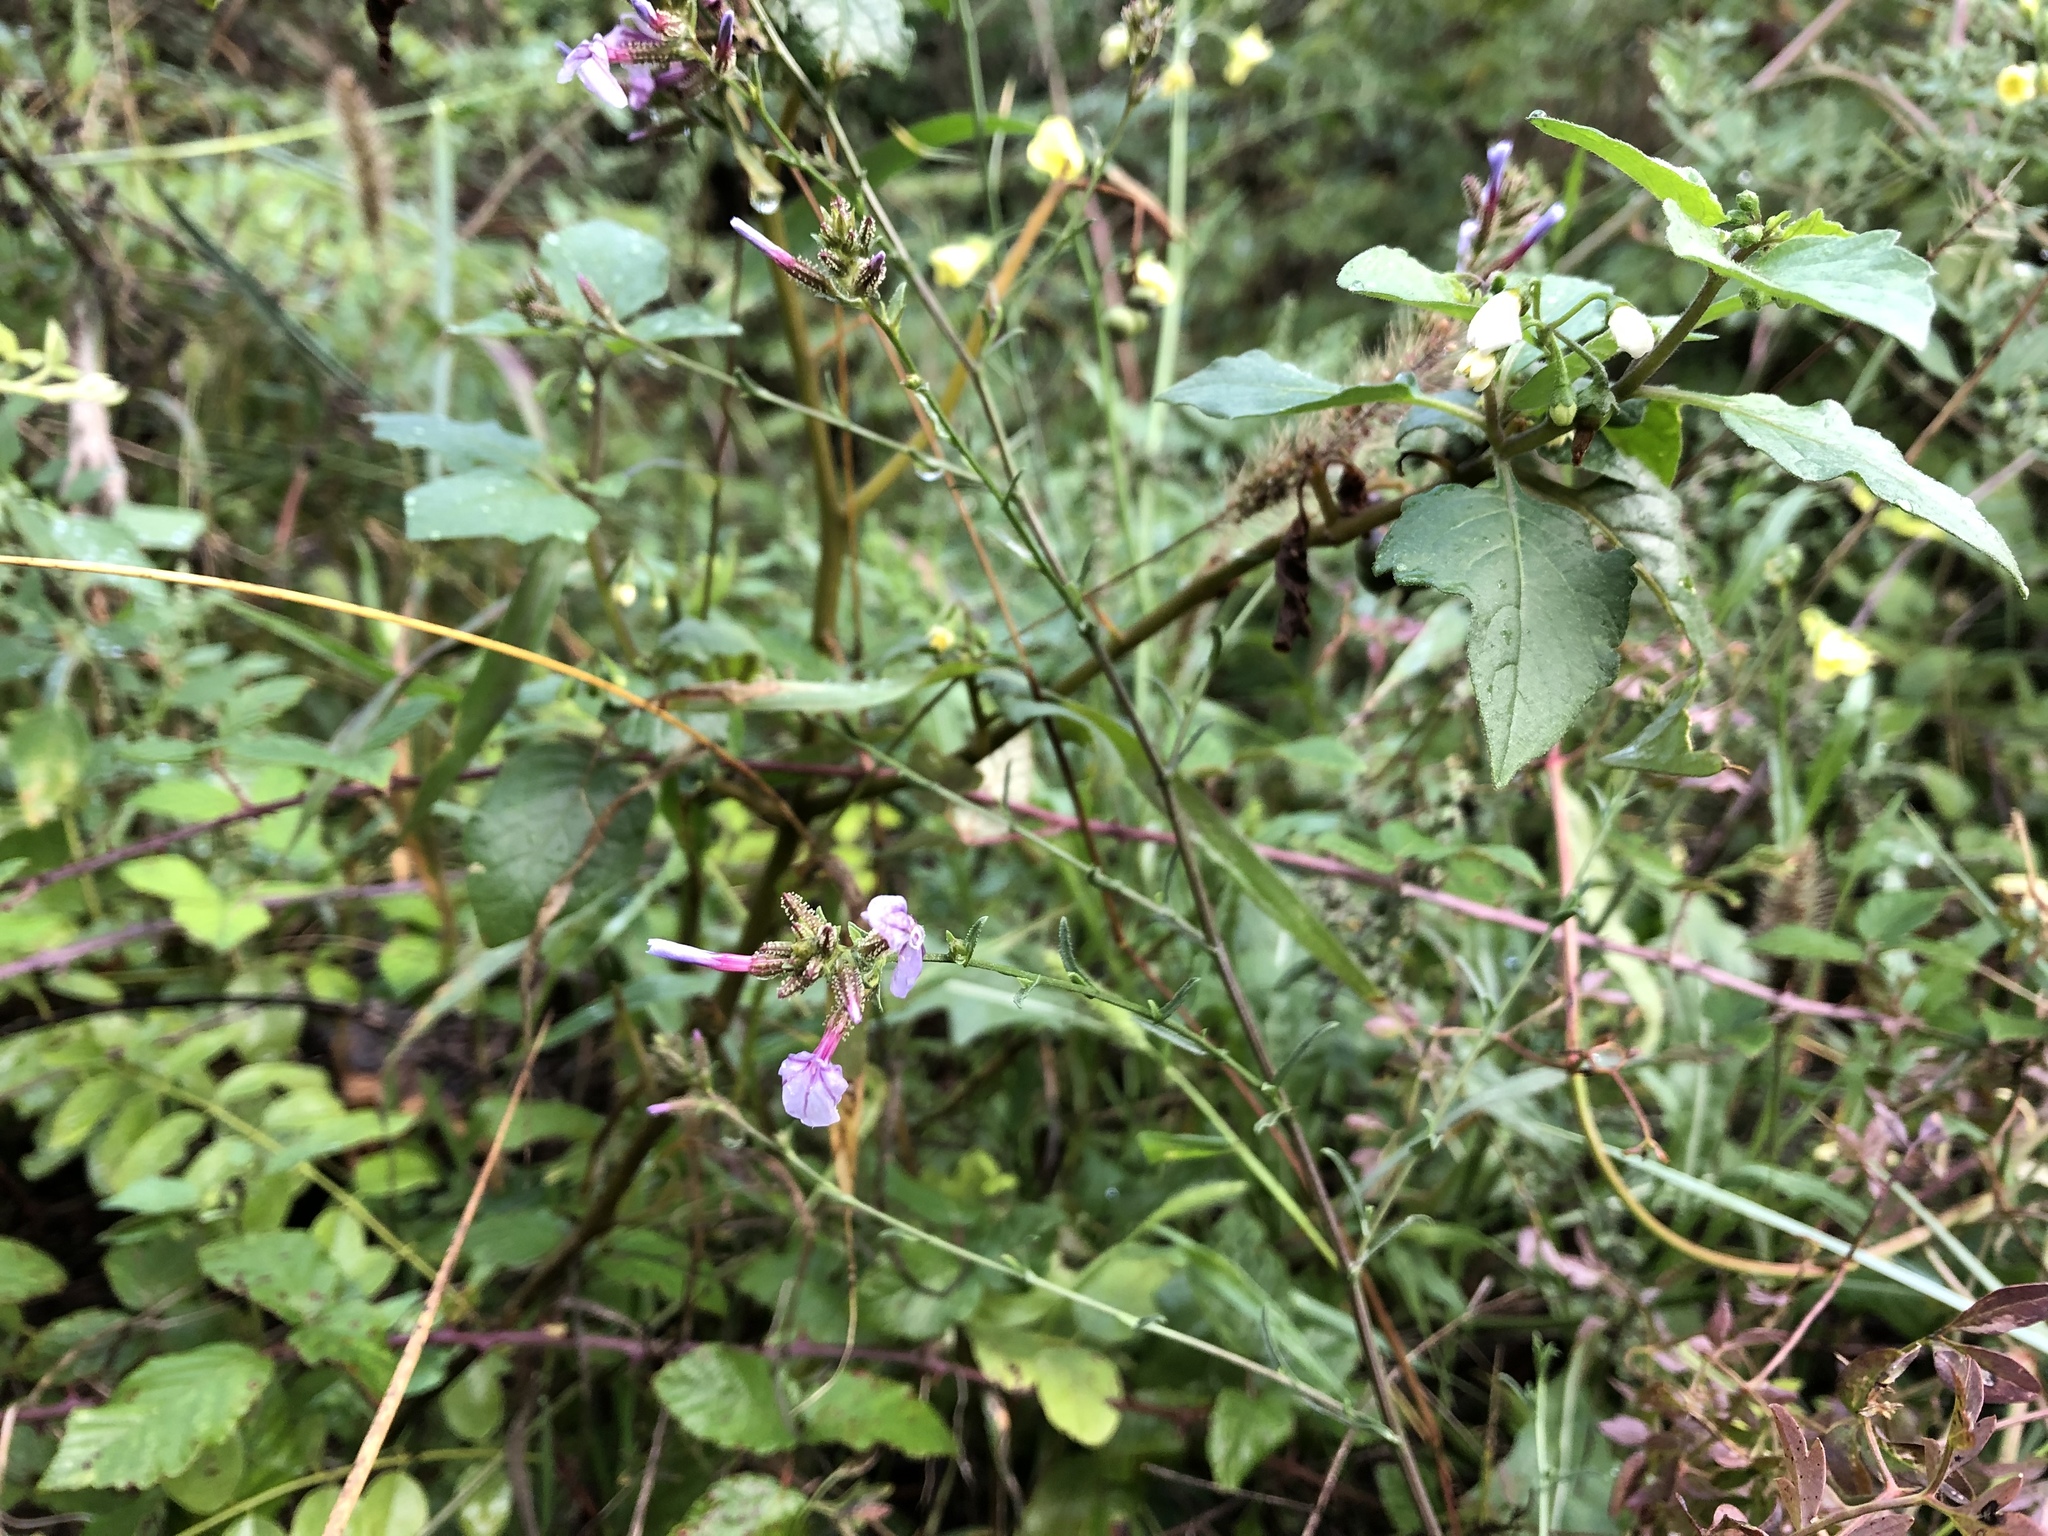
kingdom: Plantae
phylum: Tracheophyta
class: Magnoliopsida
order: Caryophyllales
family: Plumbaginaceae
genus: Plumbago
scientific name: Plumbago europaea
